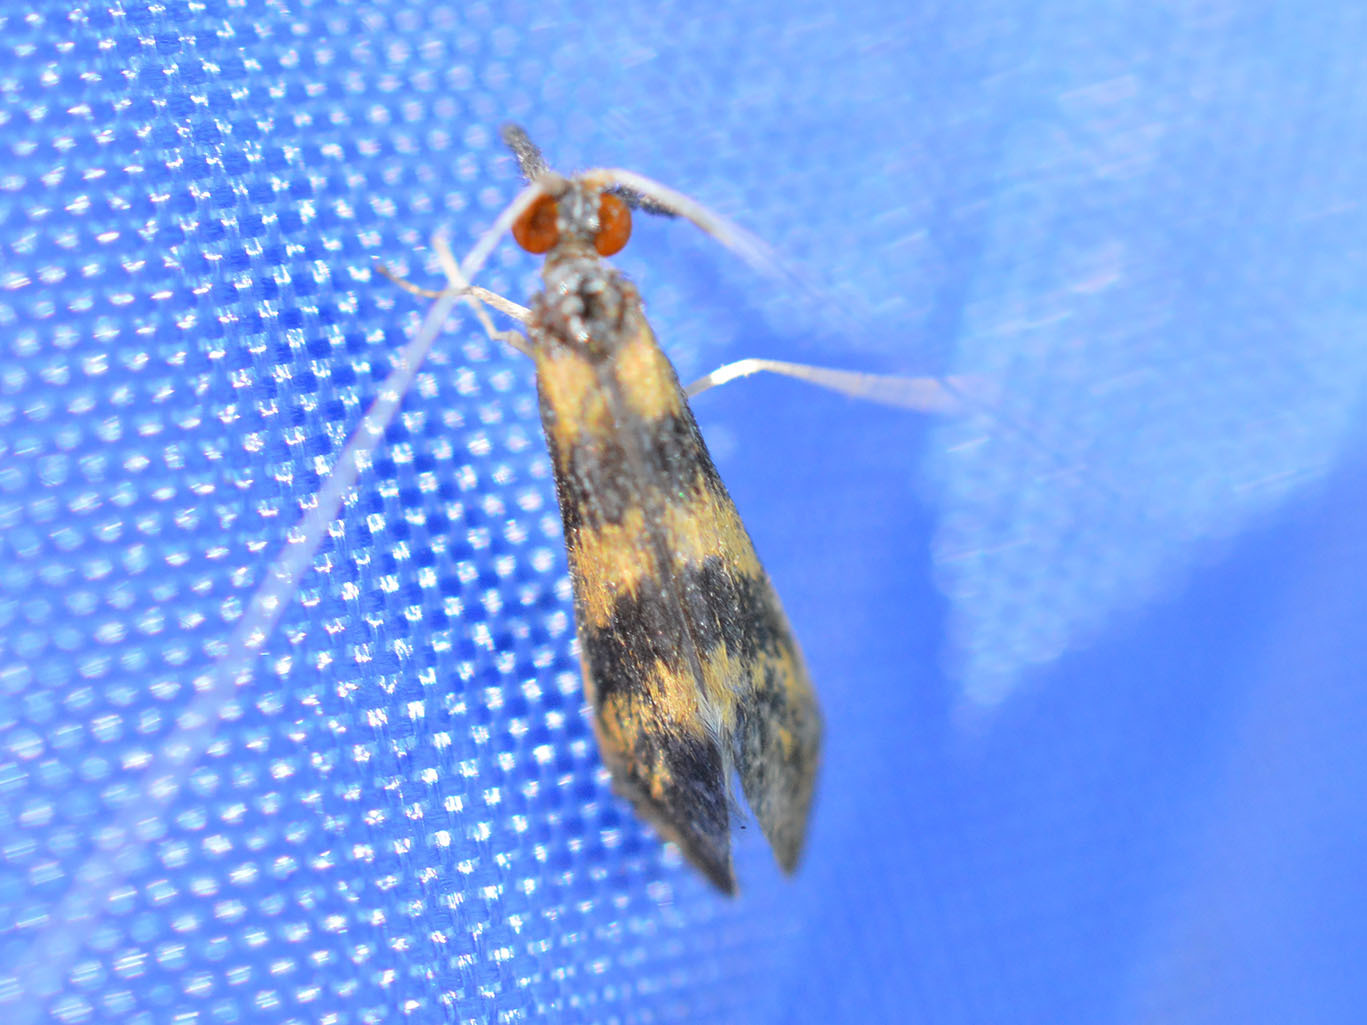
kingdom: Animalia
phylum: Arthropoda
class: Insecta
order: Trichoptera
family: Leptoceridae
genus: Mystacides
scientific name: Mystacides longicornis
